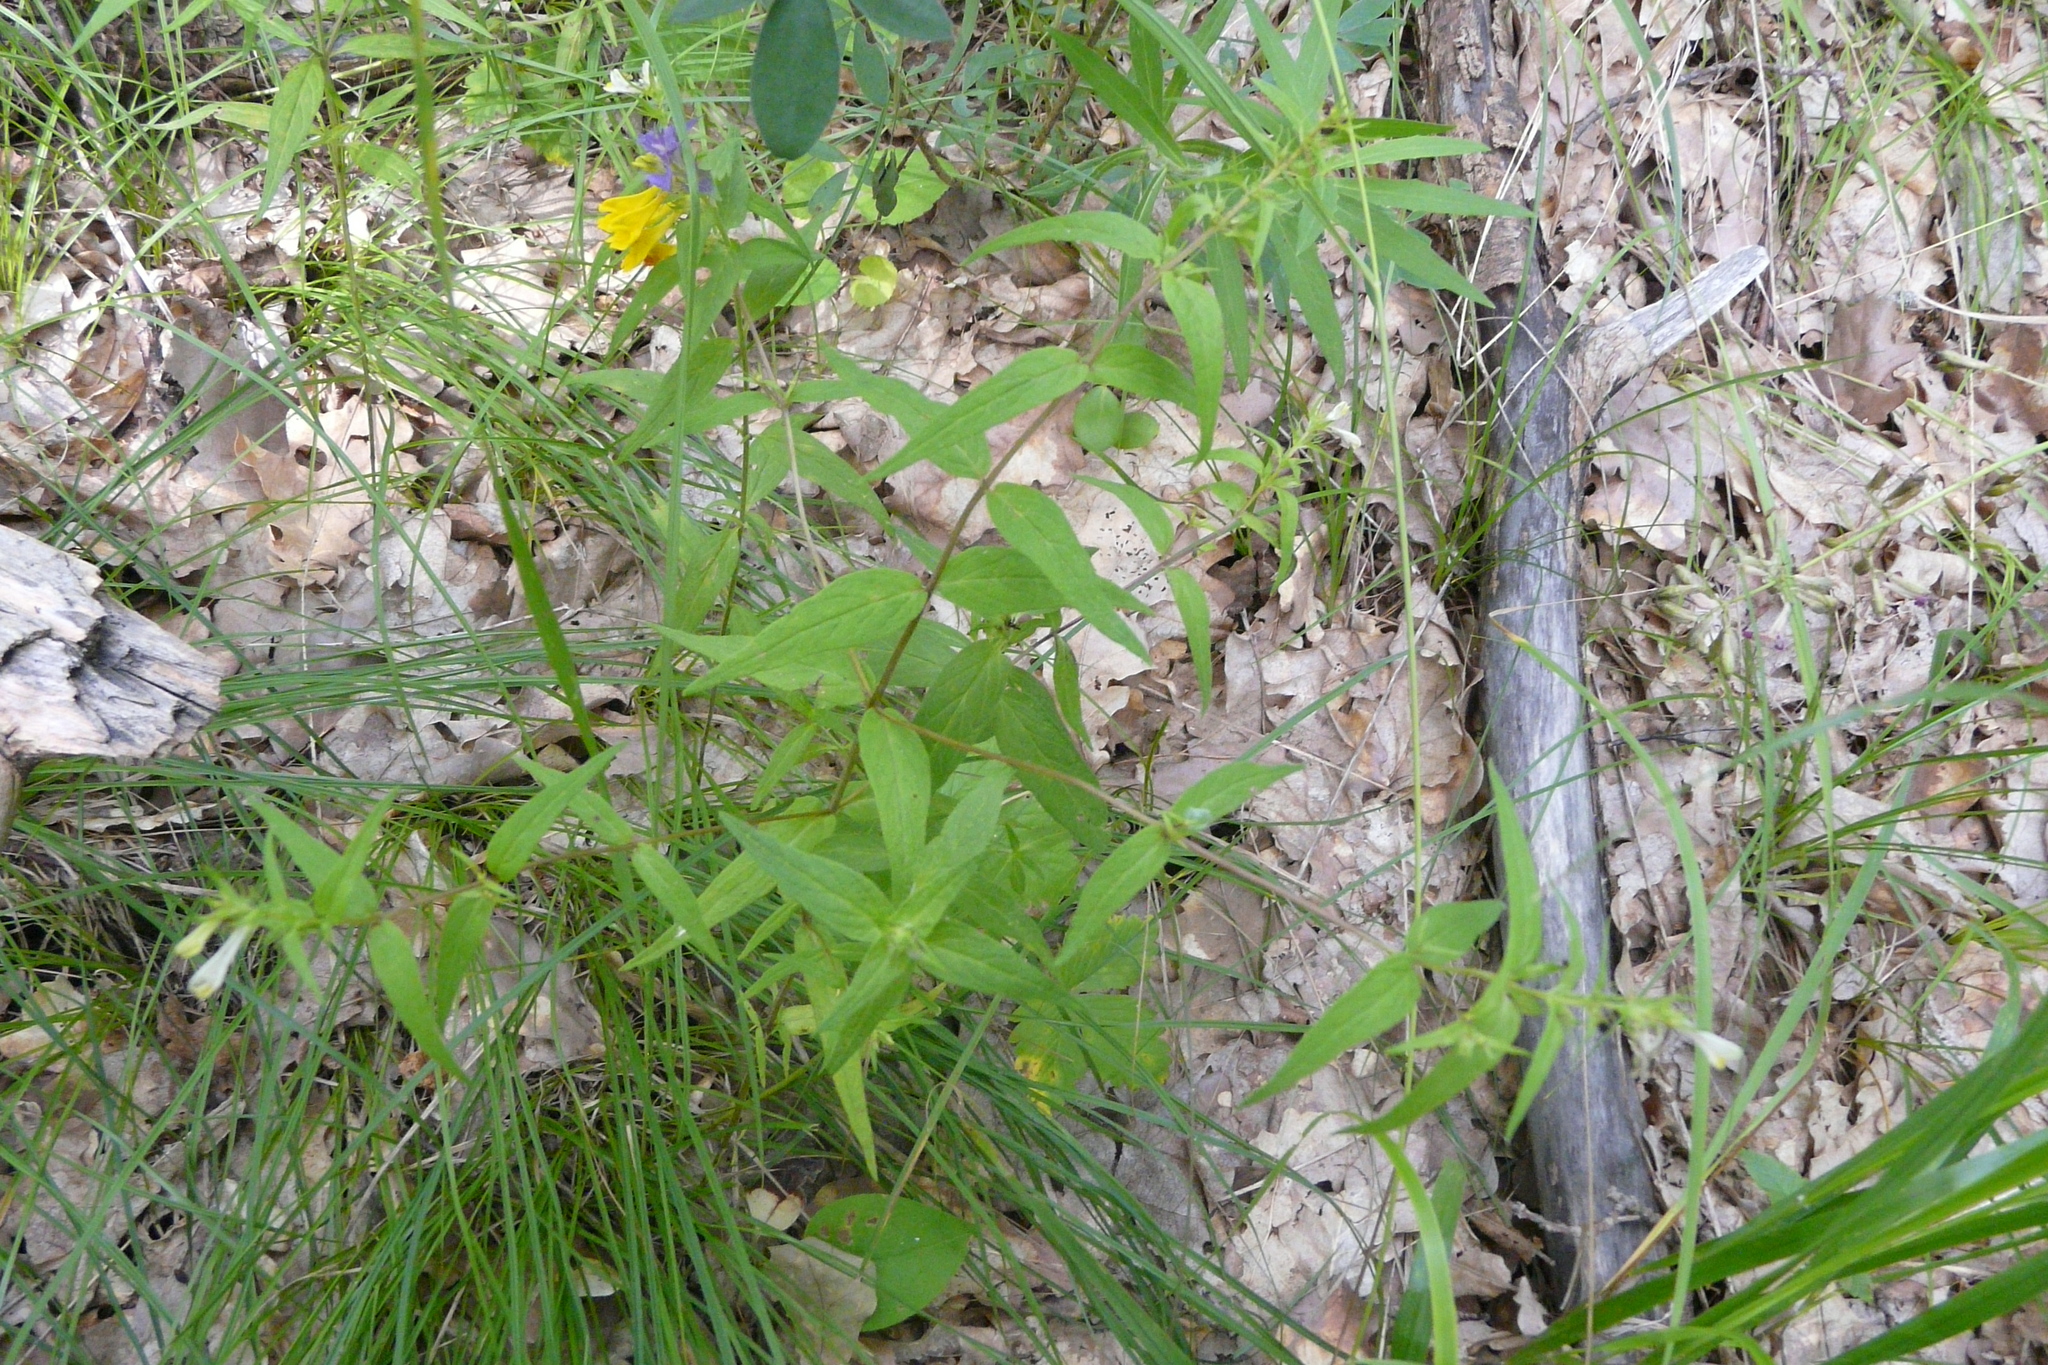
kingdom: Plantae
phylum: Tracheophyta
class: Magnoliopsida
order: Lamiales
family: Orobanchaceae
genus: Melampyrum
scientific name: Melampyrum nemorosum
